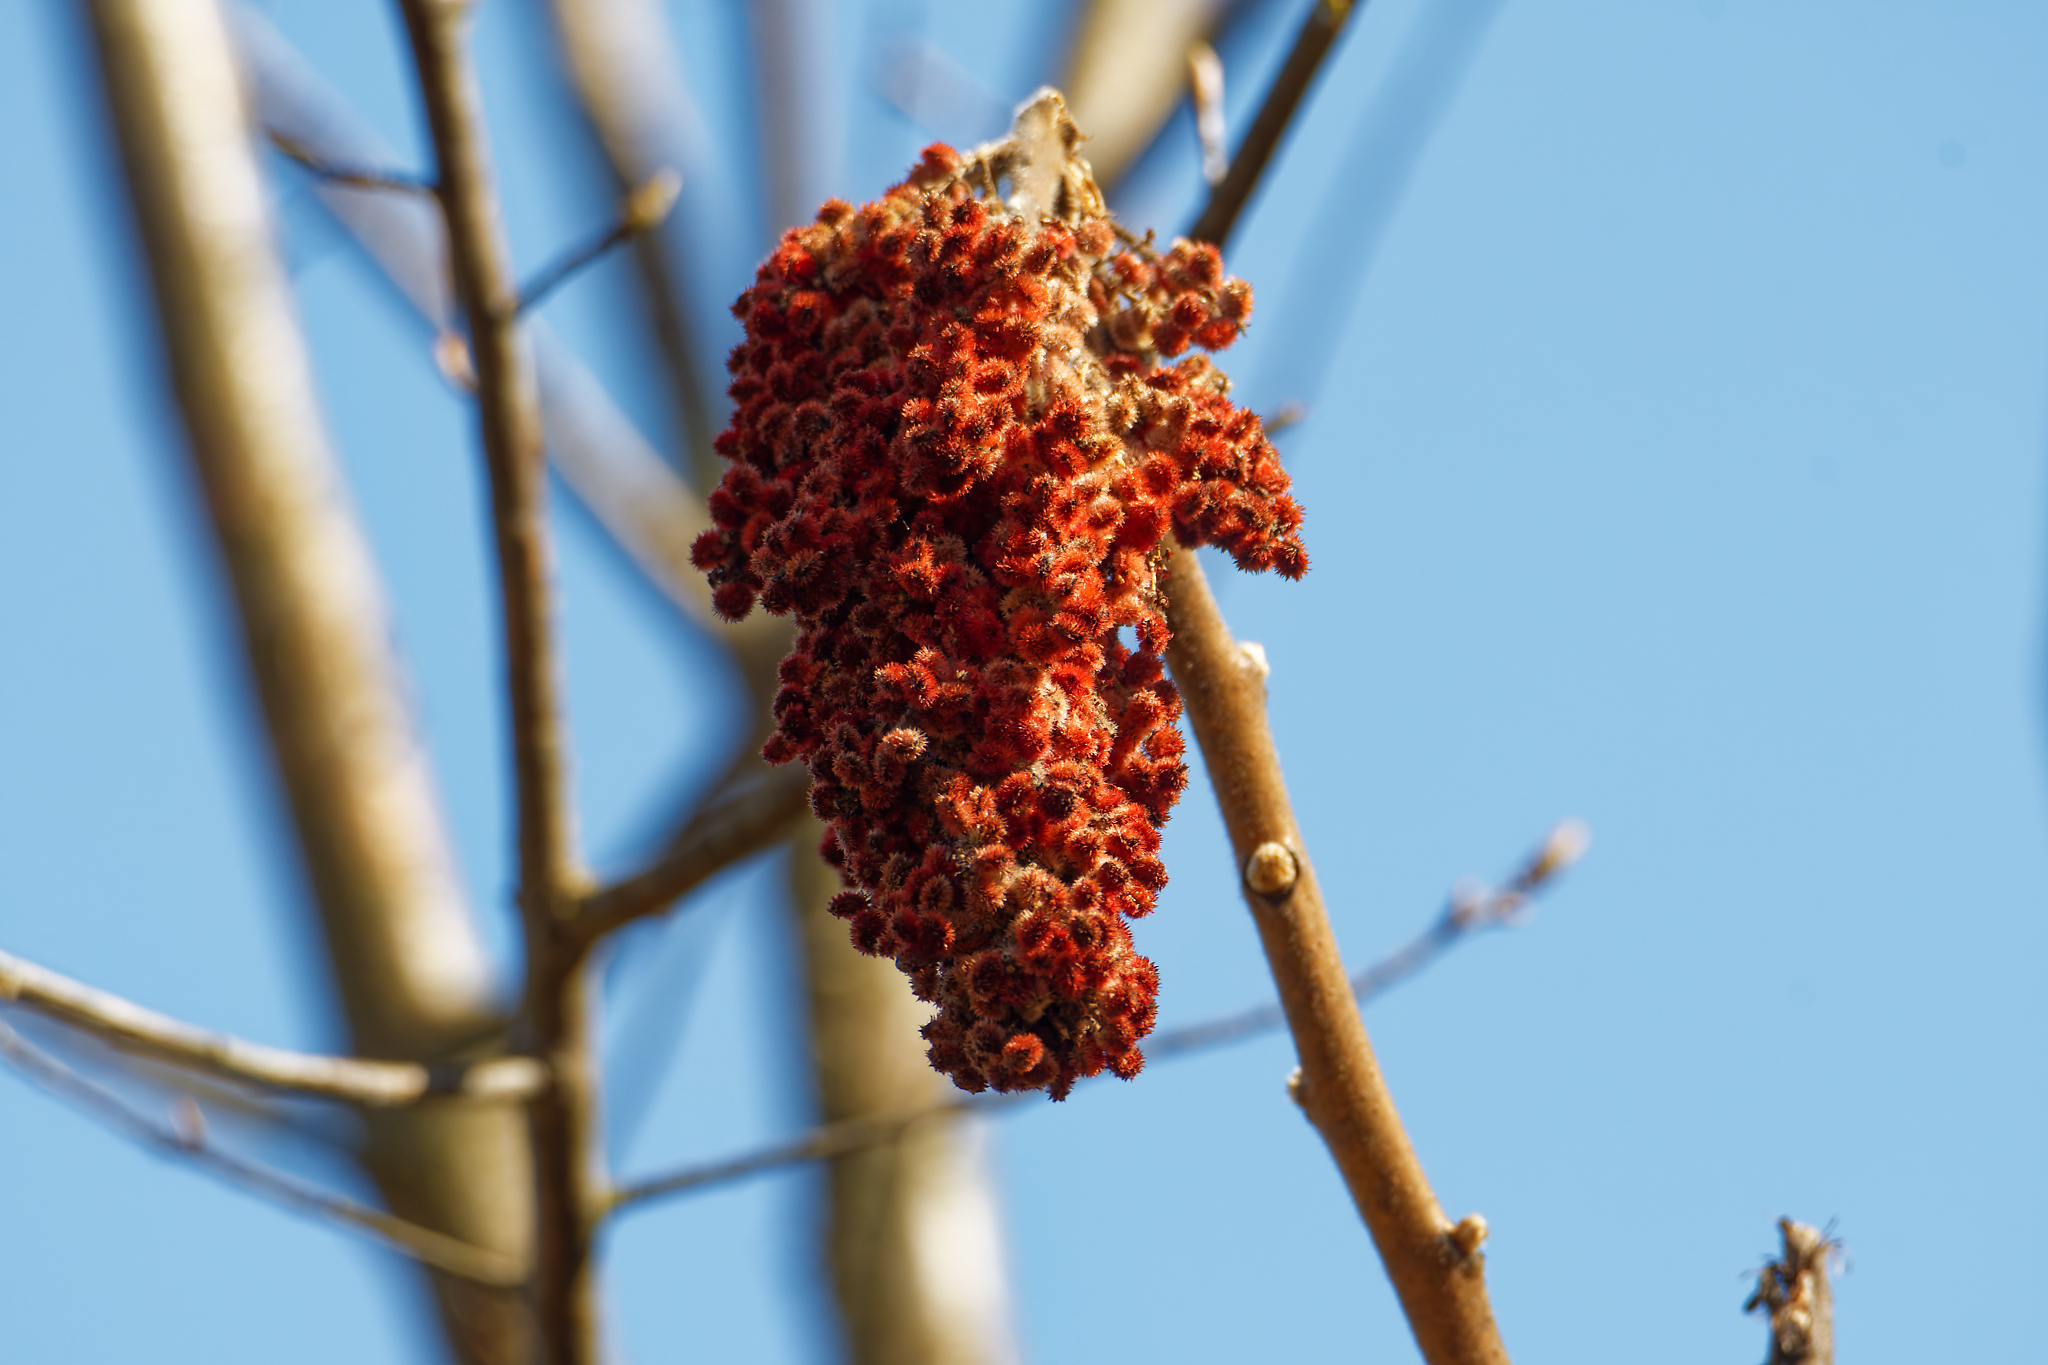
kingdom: Plantae
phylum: Tracheophyta
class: Magnoliopsida
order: Sapindales
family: Anacardiaceae
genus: Rhus
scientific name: Rhus typhina
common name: Staghorn sumac
